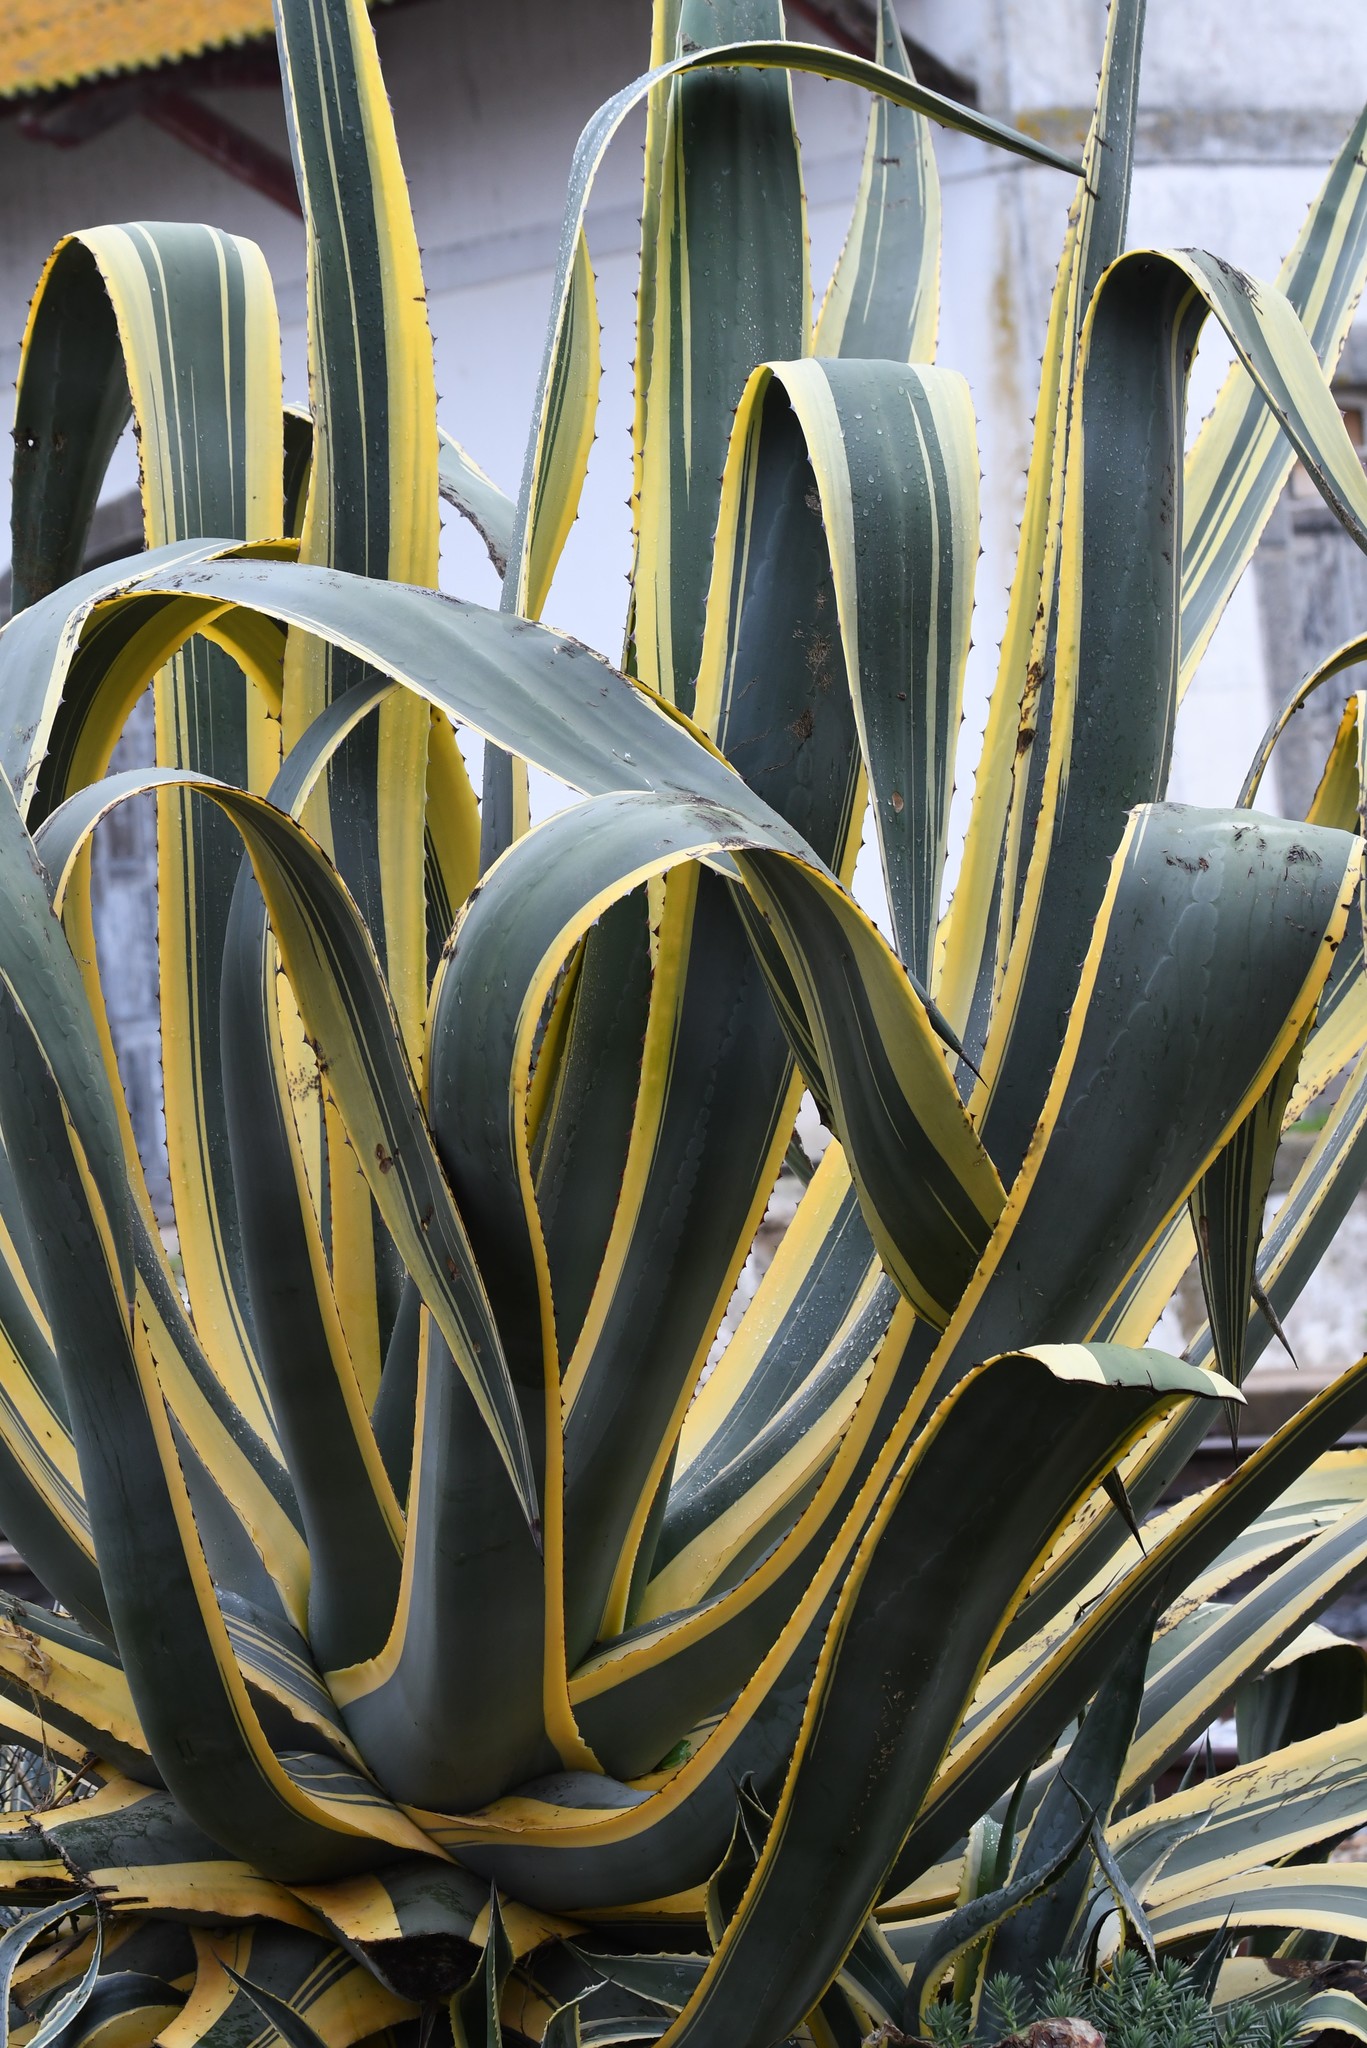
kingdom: Plantae
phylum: Tracheophyta
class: Liliopsida
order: Asparagales
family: Asparagaceae
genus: Agave
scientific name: Agave americana
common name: Centuryplant
